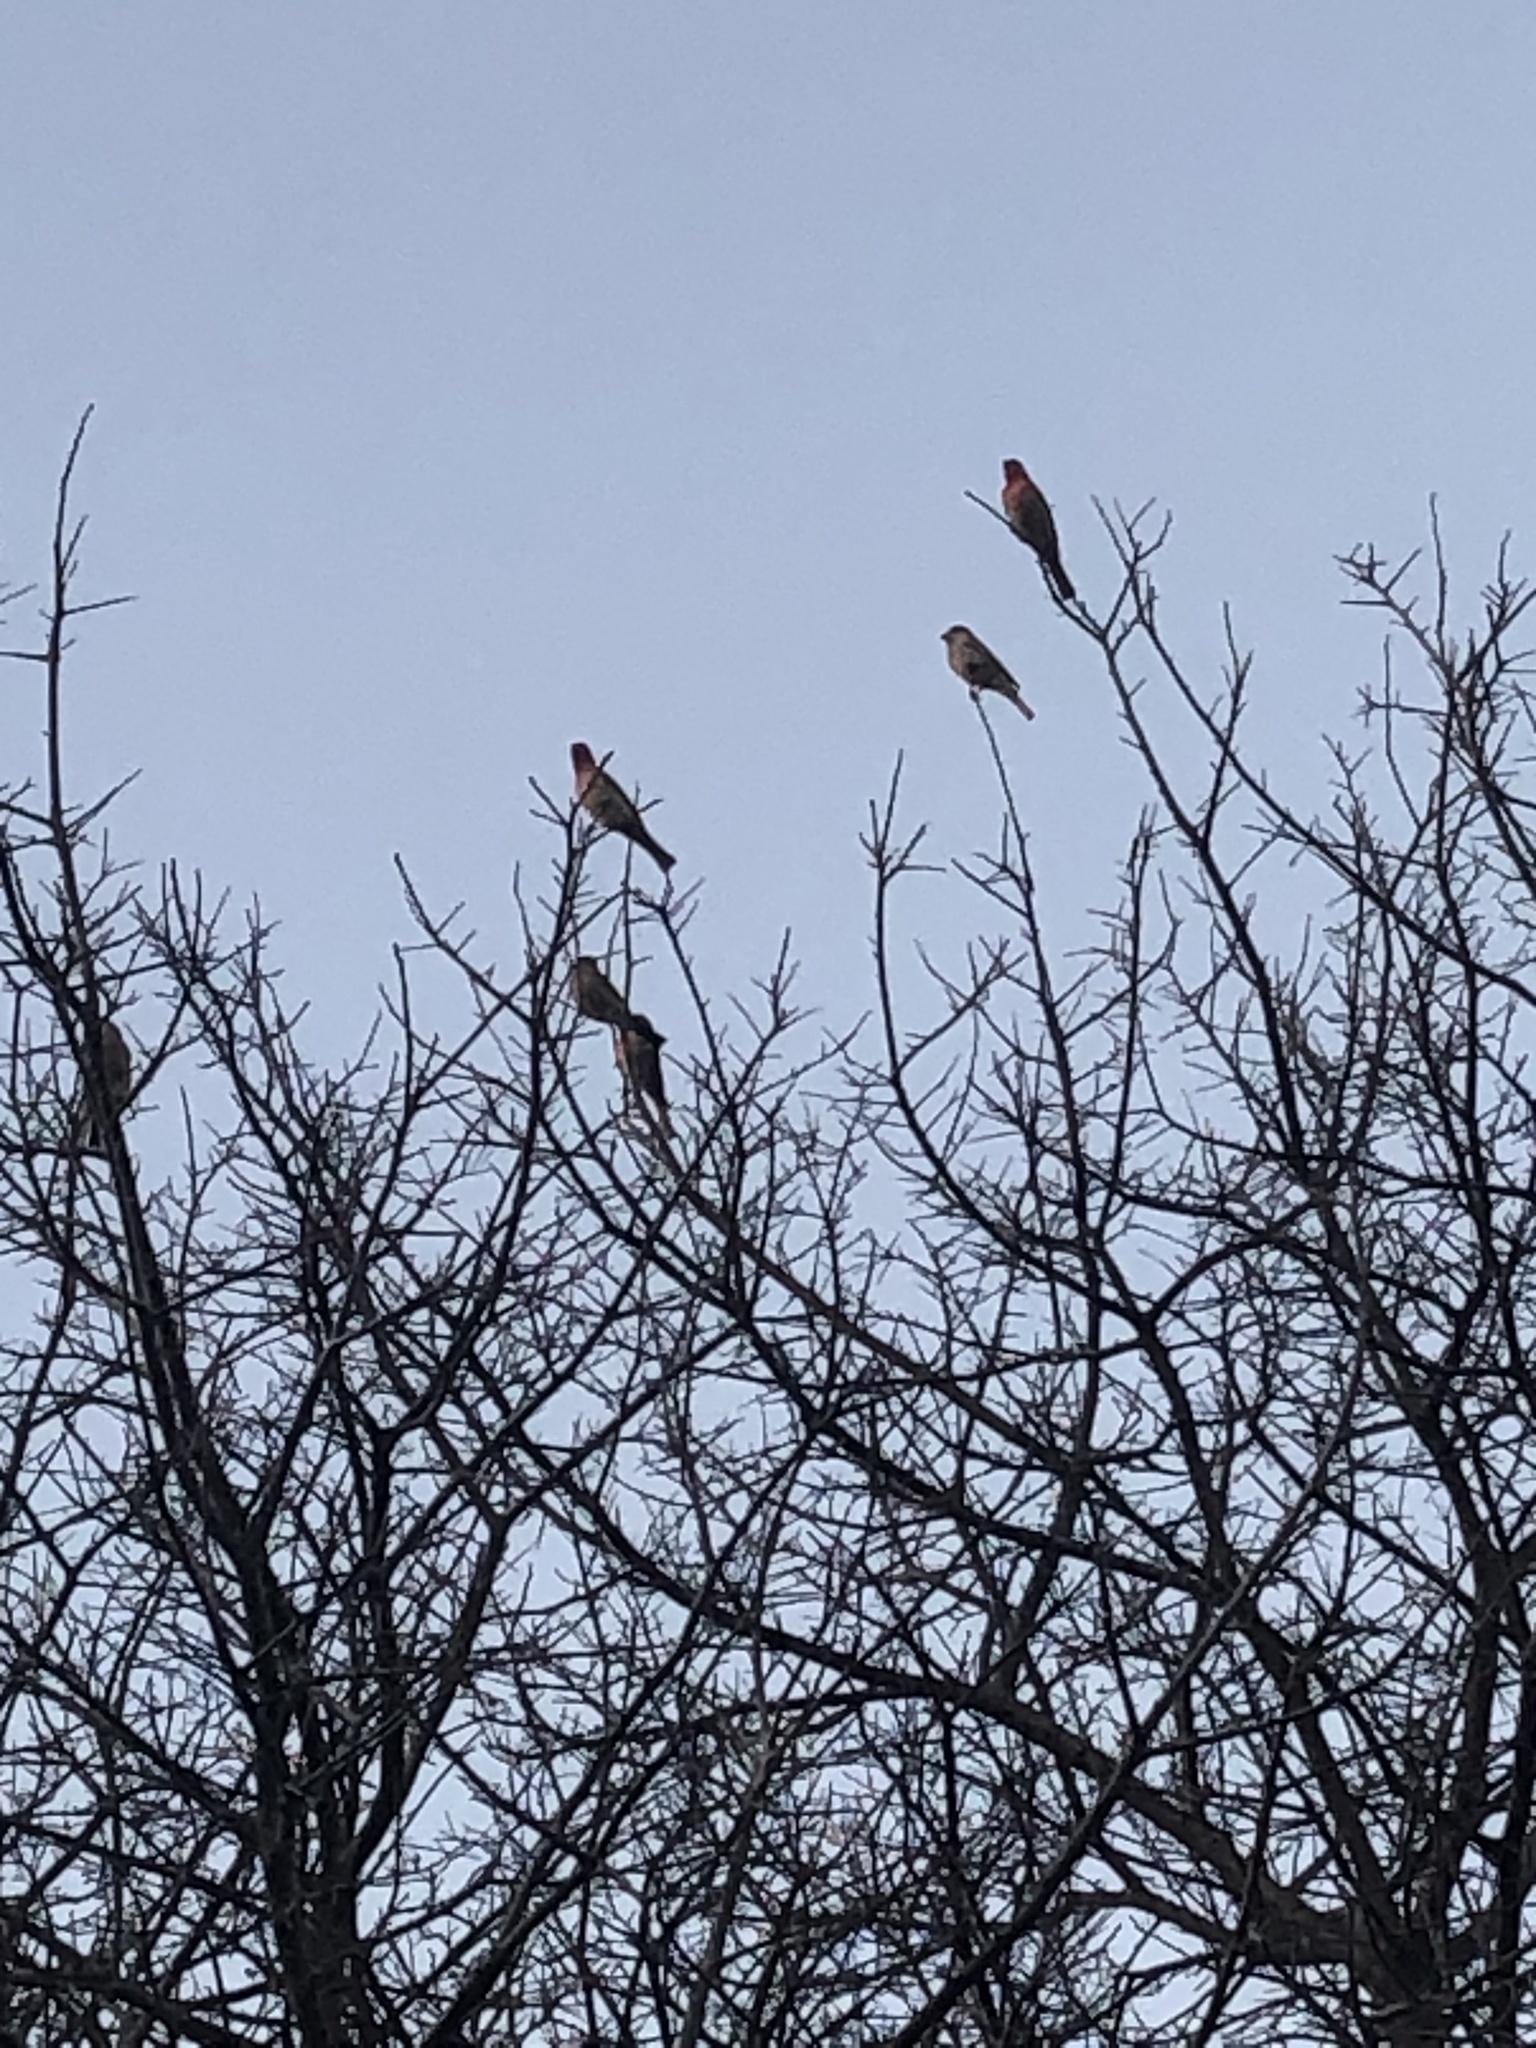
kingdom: Animalia
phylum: Chordata
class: Aves
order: Passeriformes
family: Fringillidae
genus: Haemorhous
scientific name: Haemorhous mexicanus
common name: House finch
